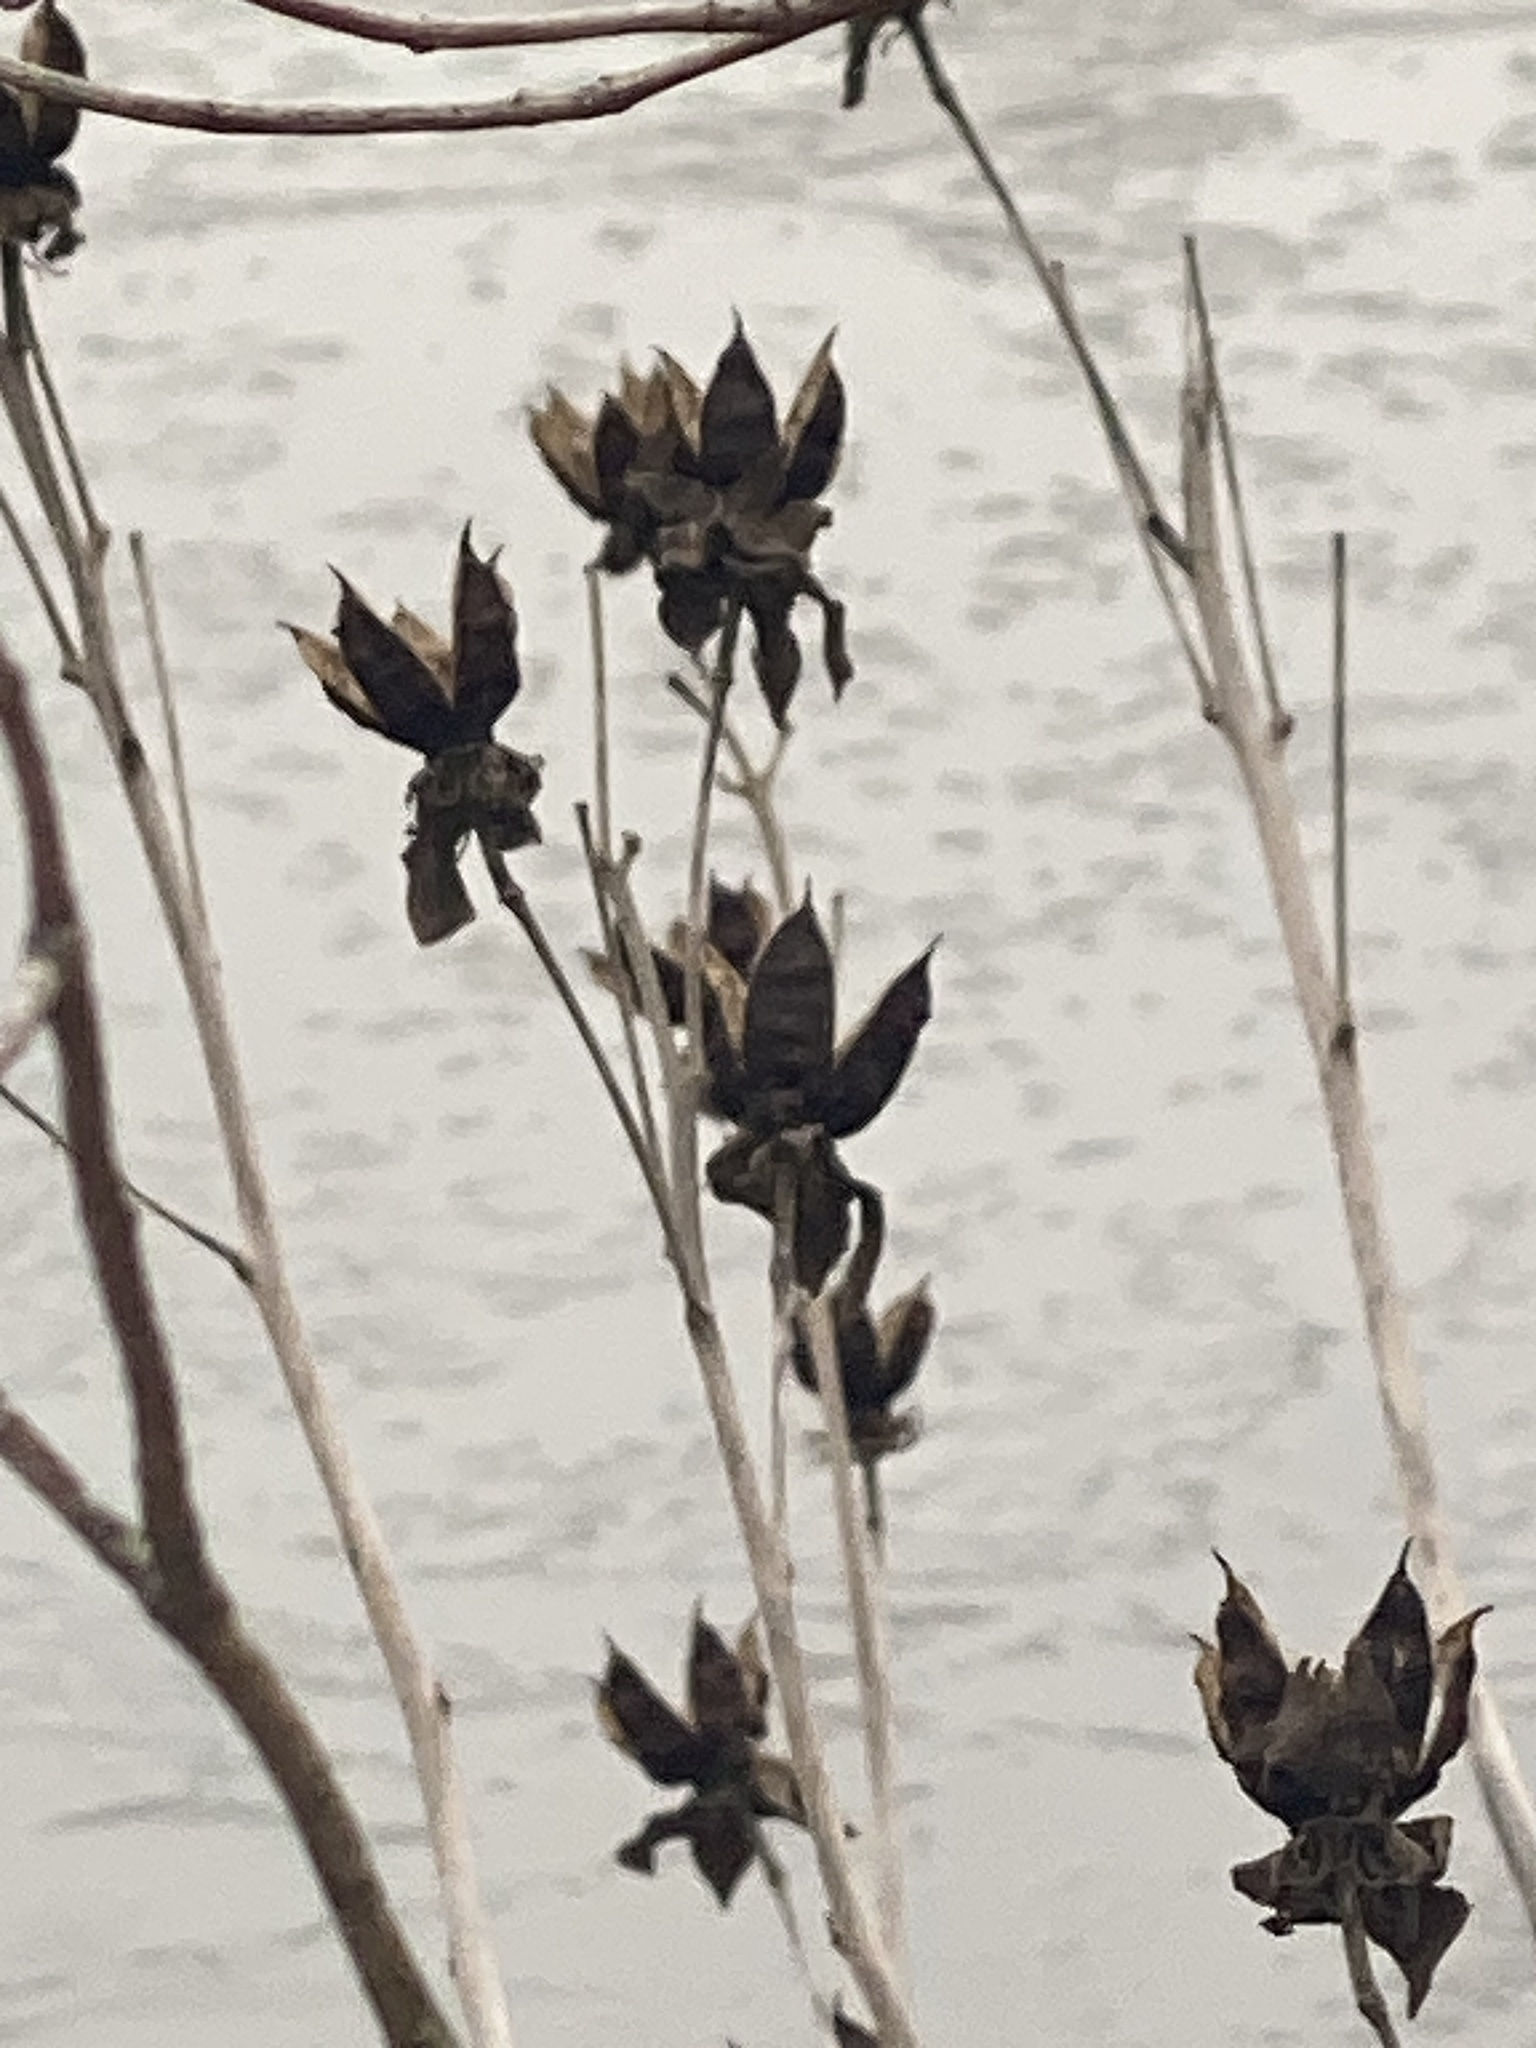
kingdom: Plantae
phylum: Tracheophyta
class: Magnoliopsida
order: Malvales
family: Malvaceae
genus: Hibiscus
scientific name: Hibiscus moscheutos
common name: Common rose-mallow
